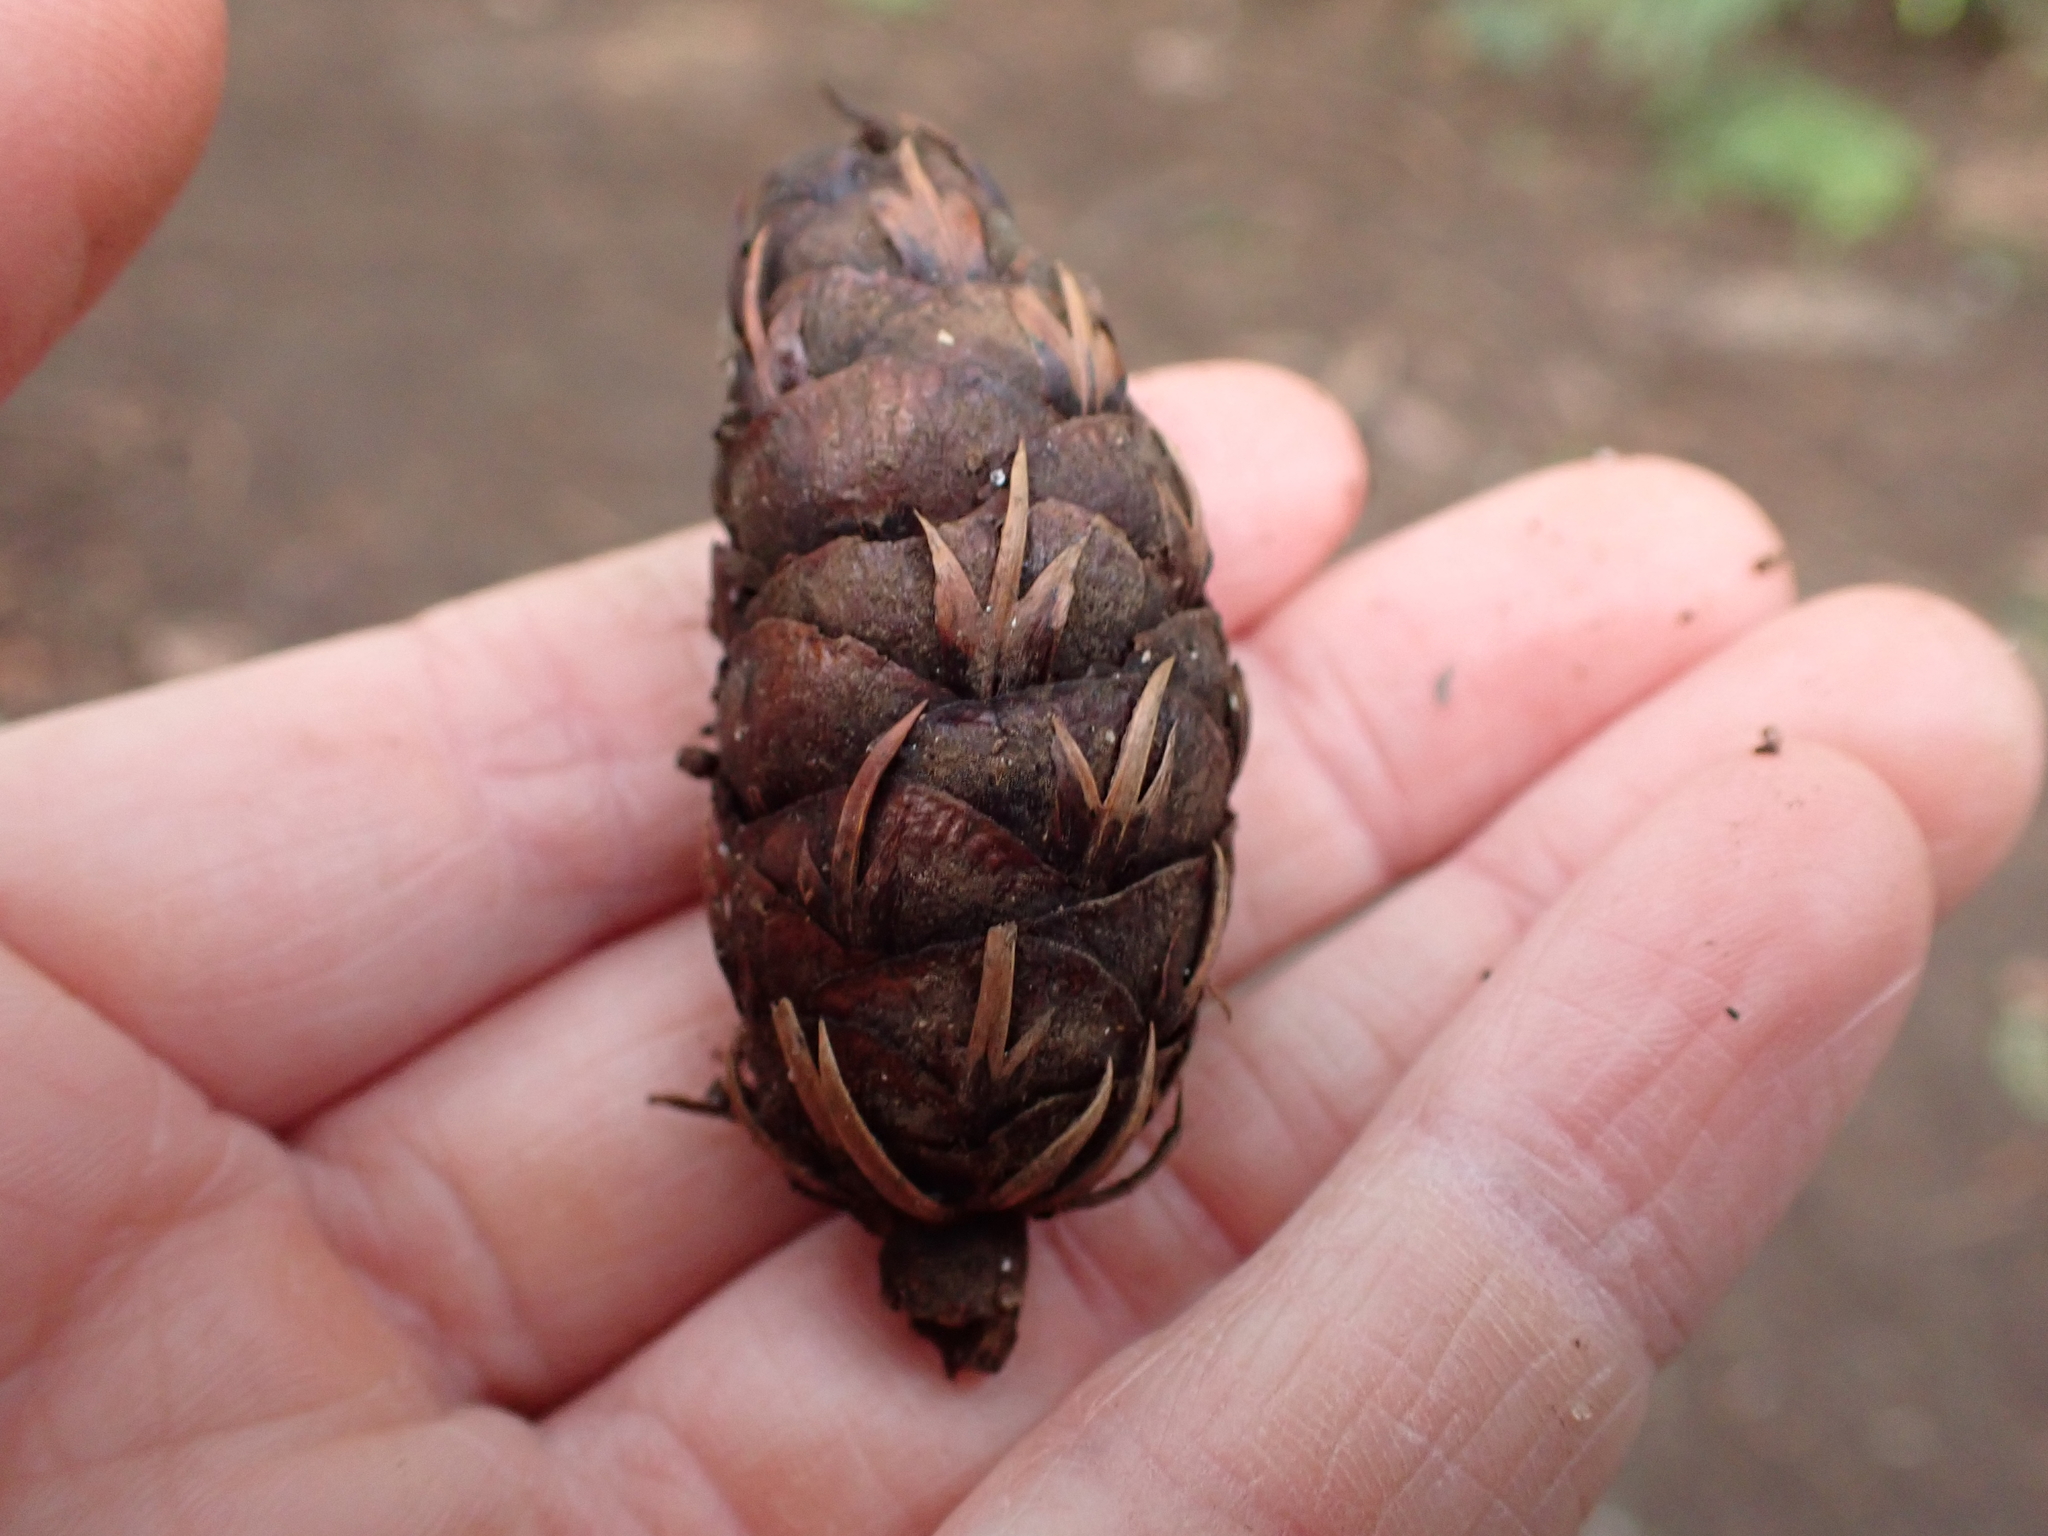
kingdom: Plantae
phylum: Tracheophyta
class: Pinopsida
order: Pinales
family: Pinaceae
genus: Pseudotsuga
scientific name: Pseudotsuga menziesii
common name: Douglas fir
